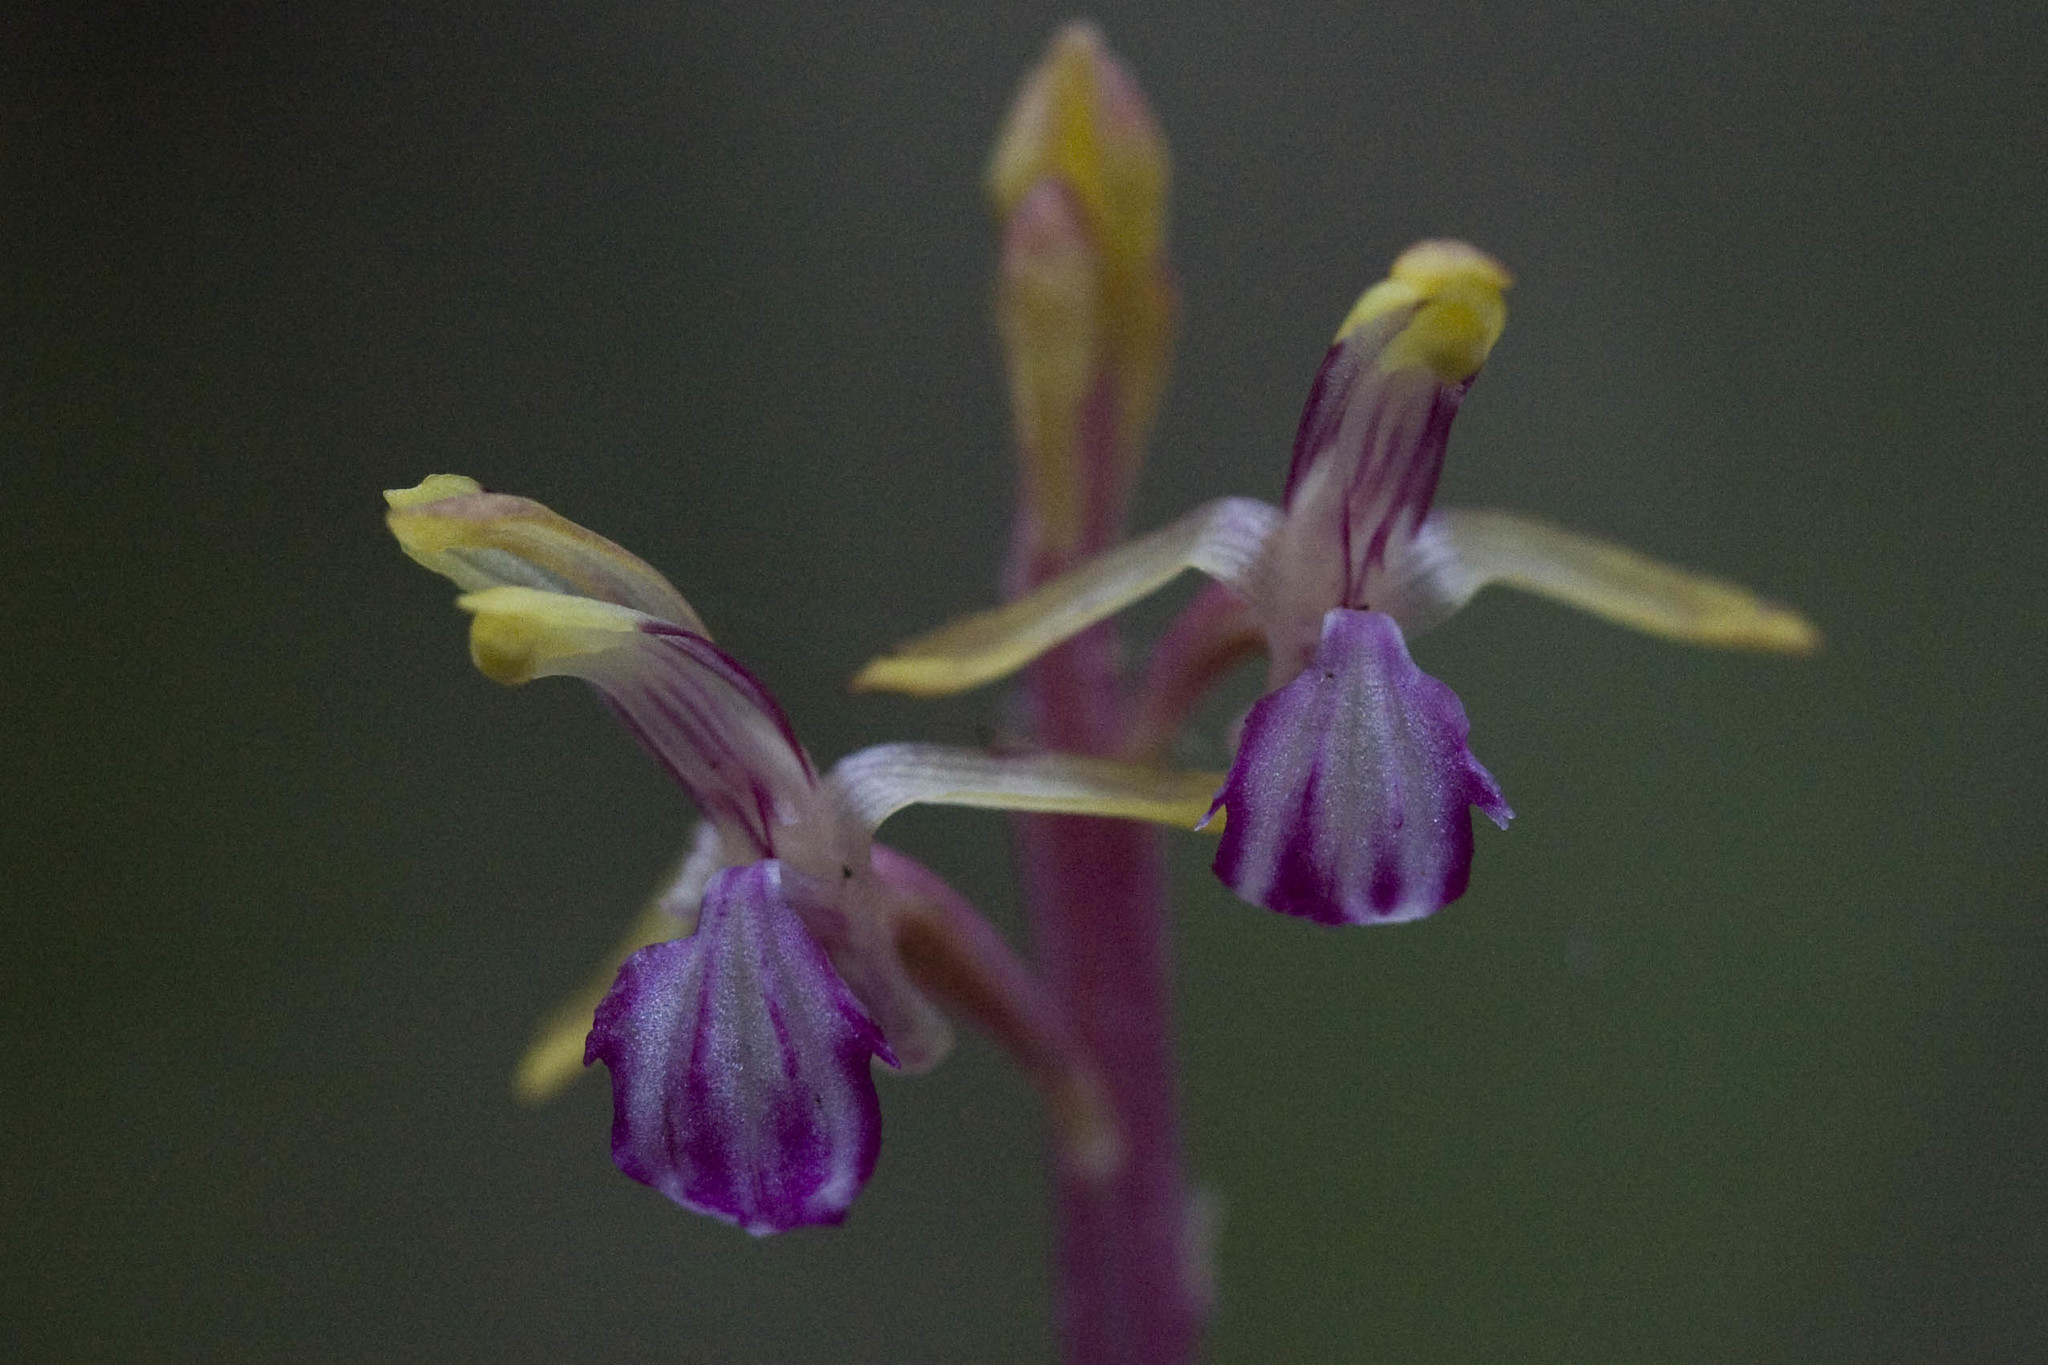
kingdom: Plantae
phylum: Tracheophyta
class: Liliopsida
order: Asparagales
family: Orchidaceae
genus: Corallorhiza
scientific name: Corallorhiza mertensiana
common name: Pacific coralroot
